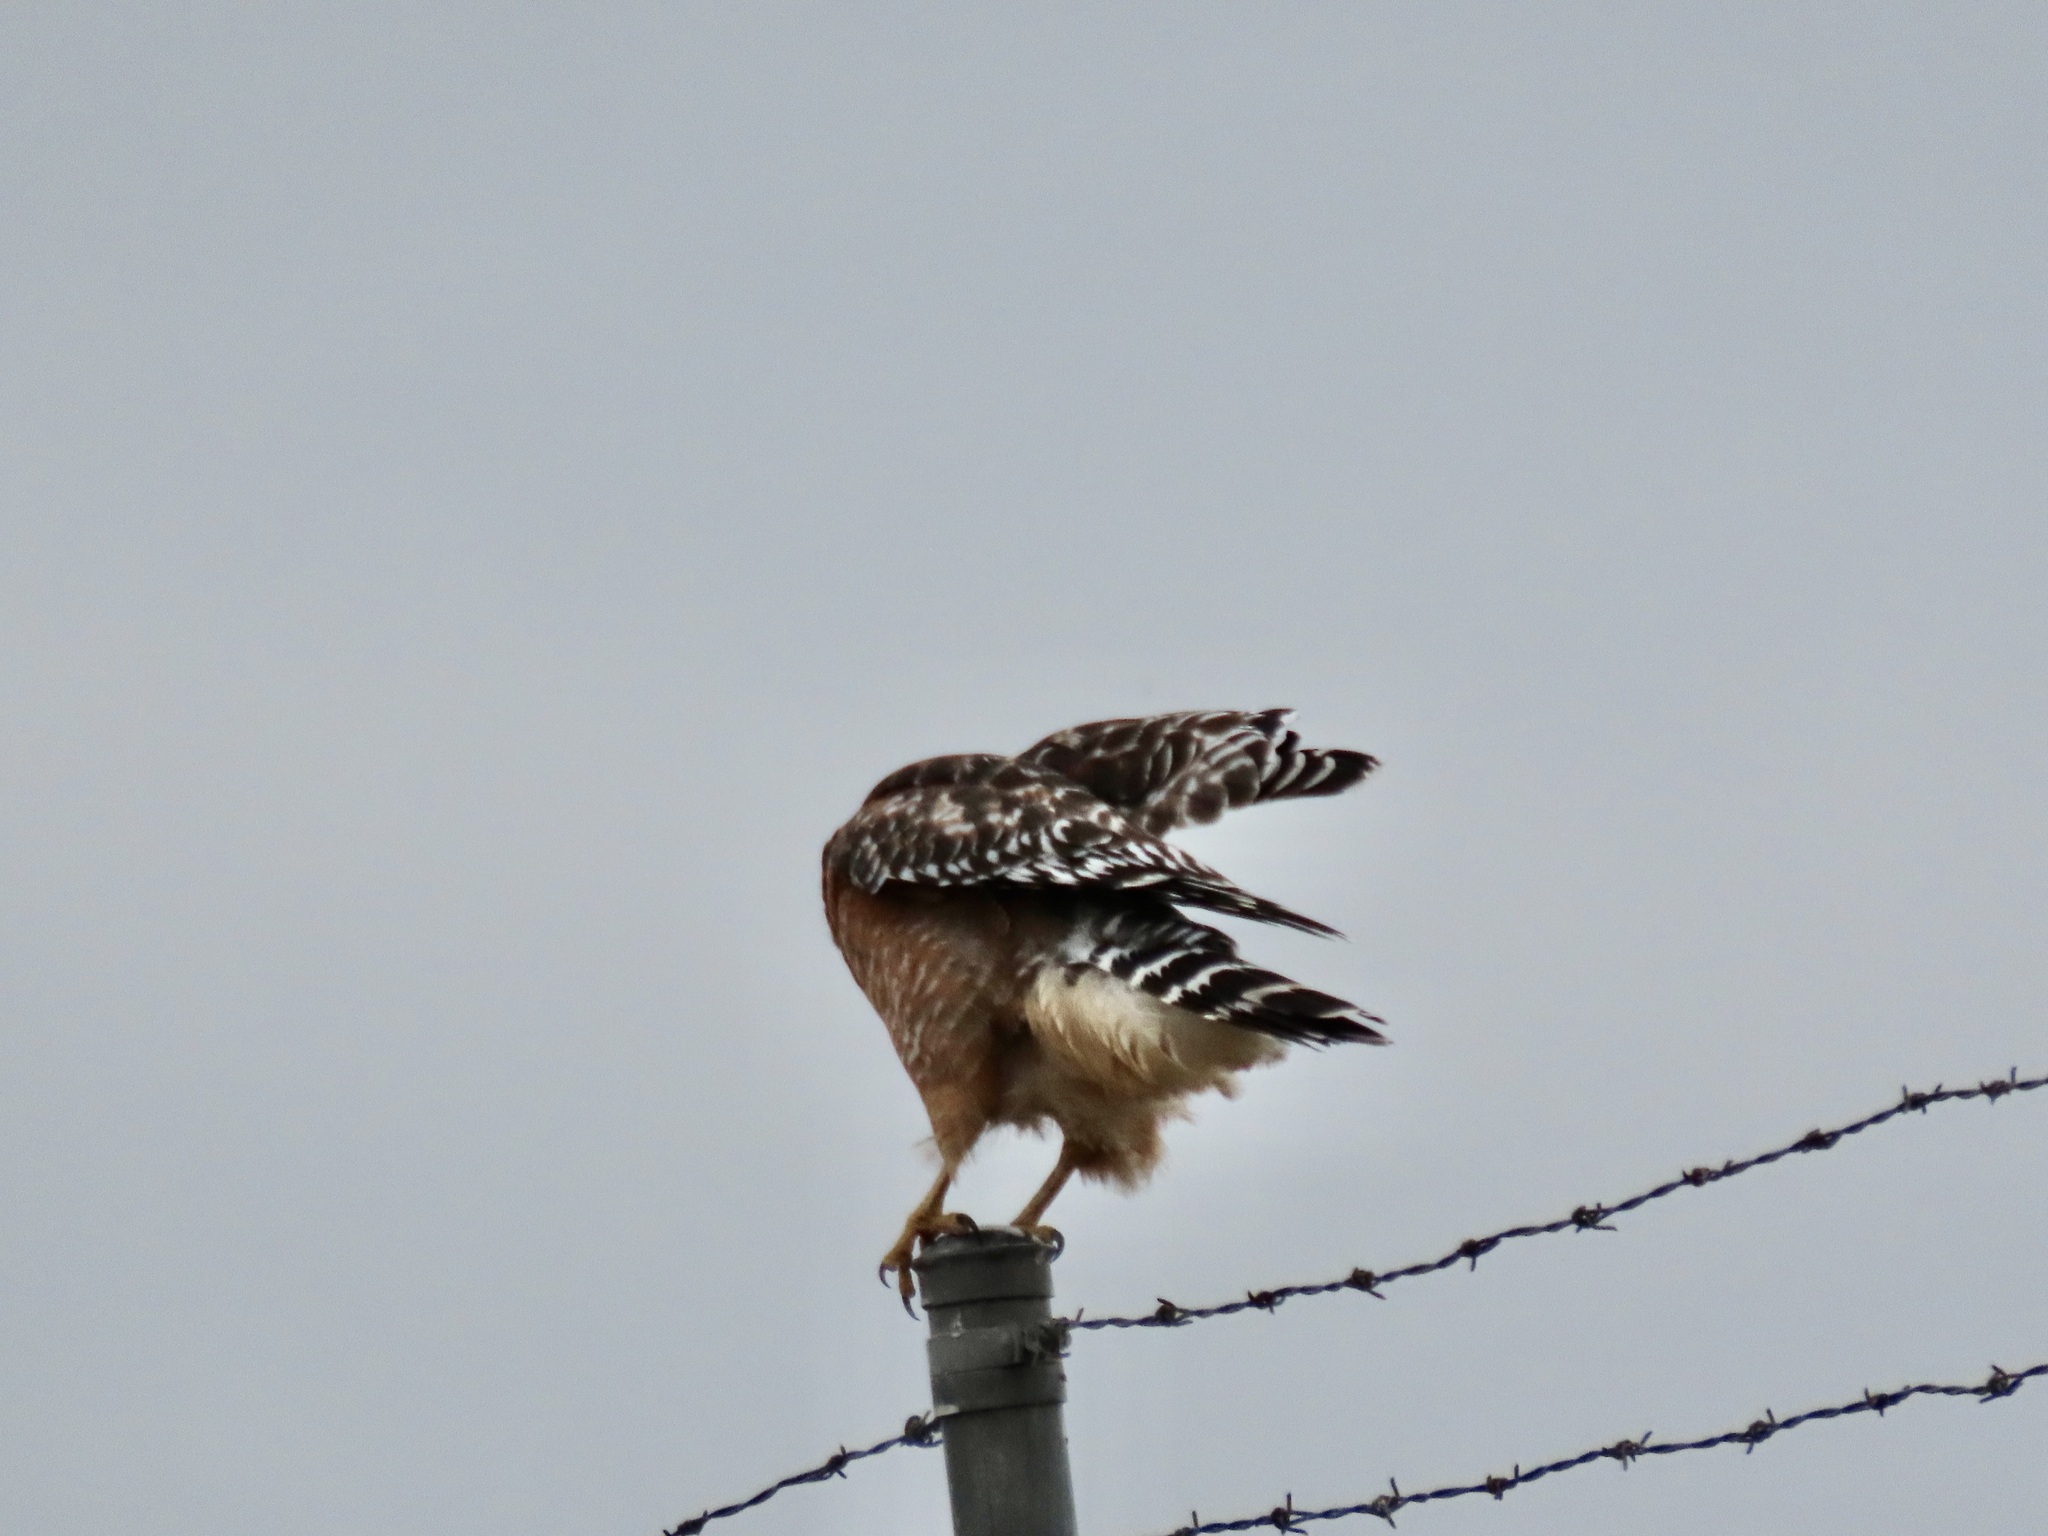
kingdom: Animalia
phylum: Chordata
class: Aves
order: Accipitriformes
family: Accipitridae
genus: Buteo
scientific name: Buteo lineatus
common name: Red-shouldered hawk
